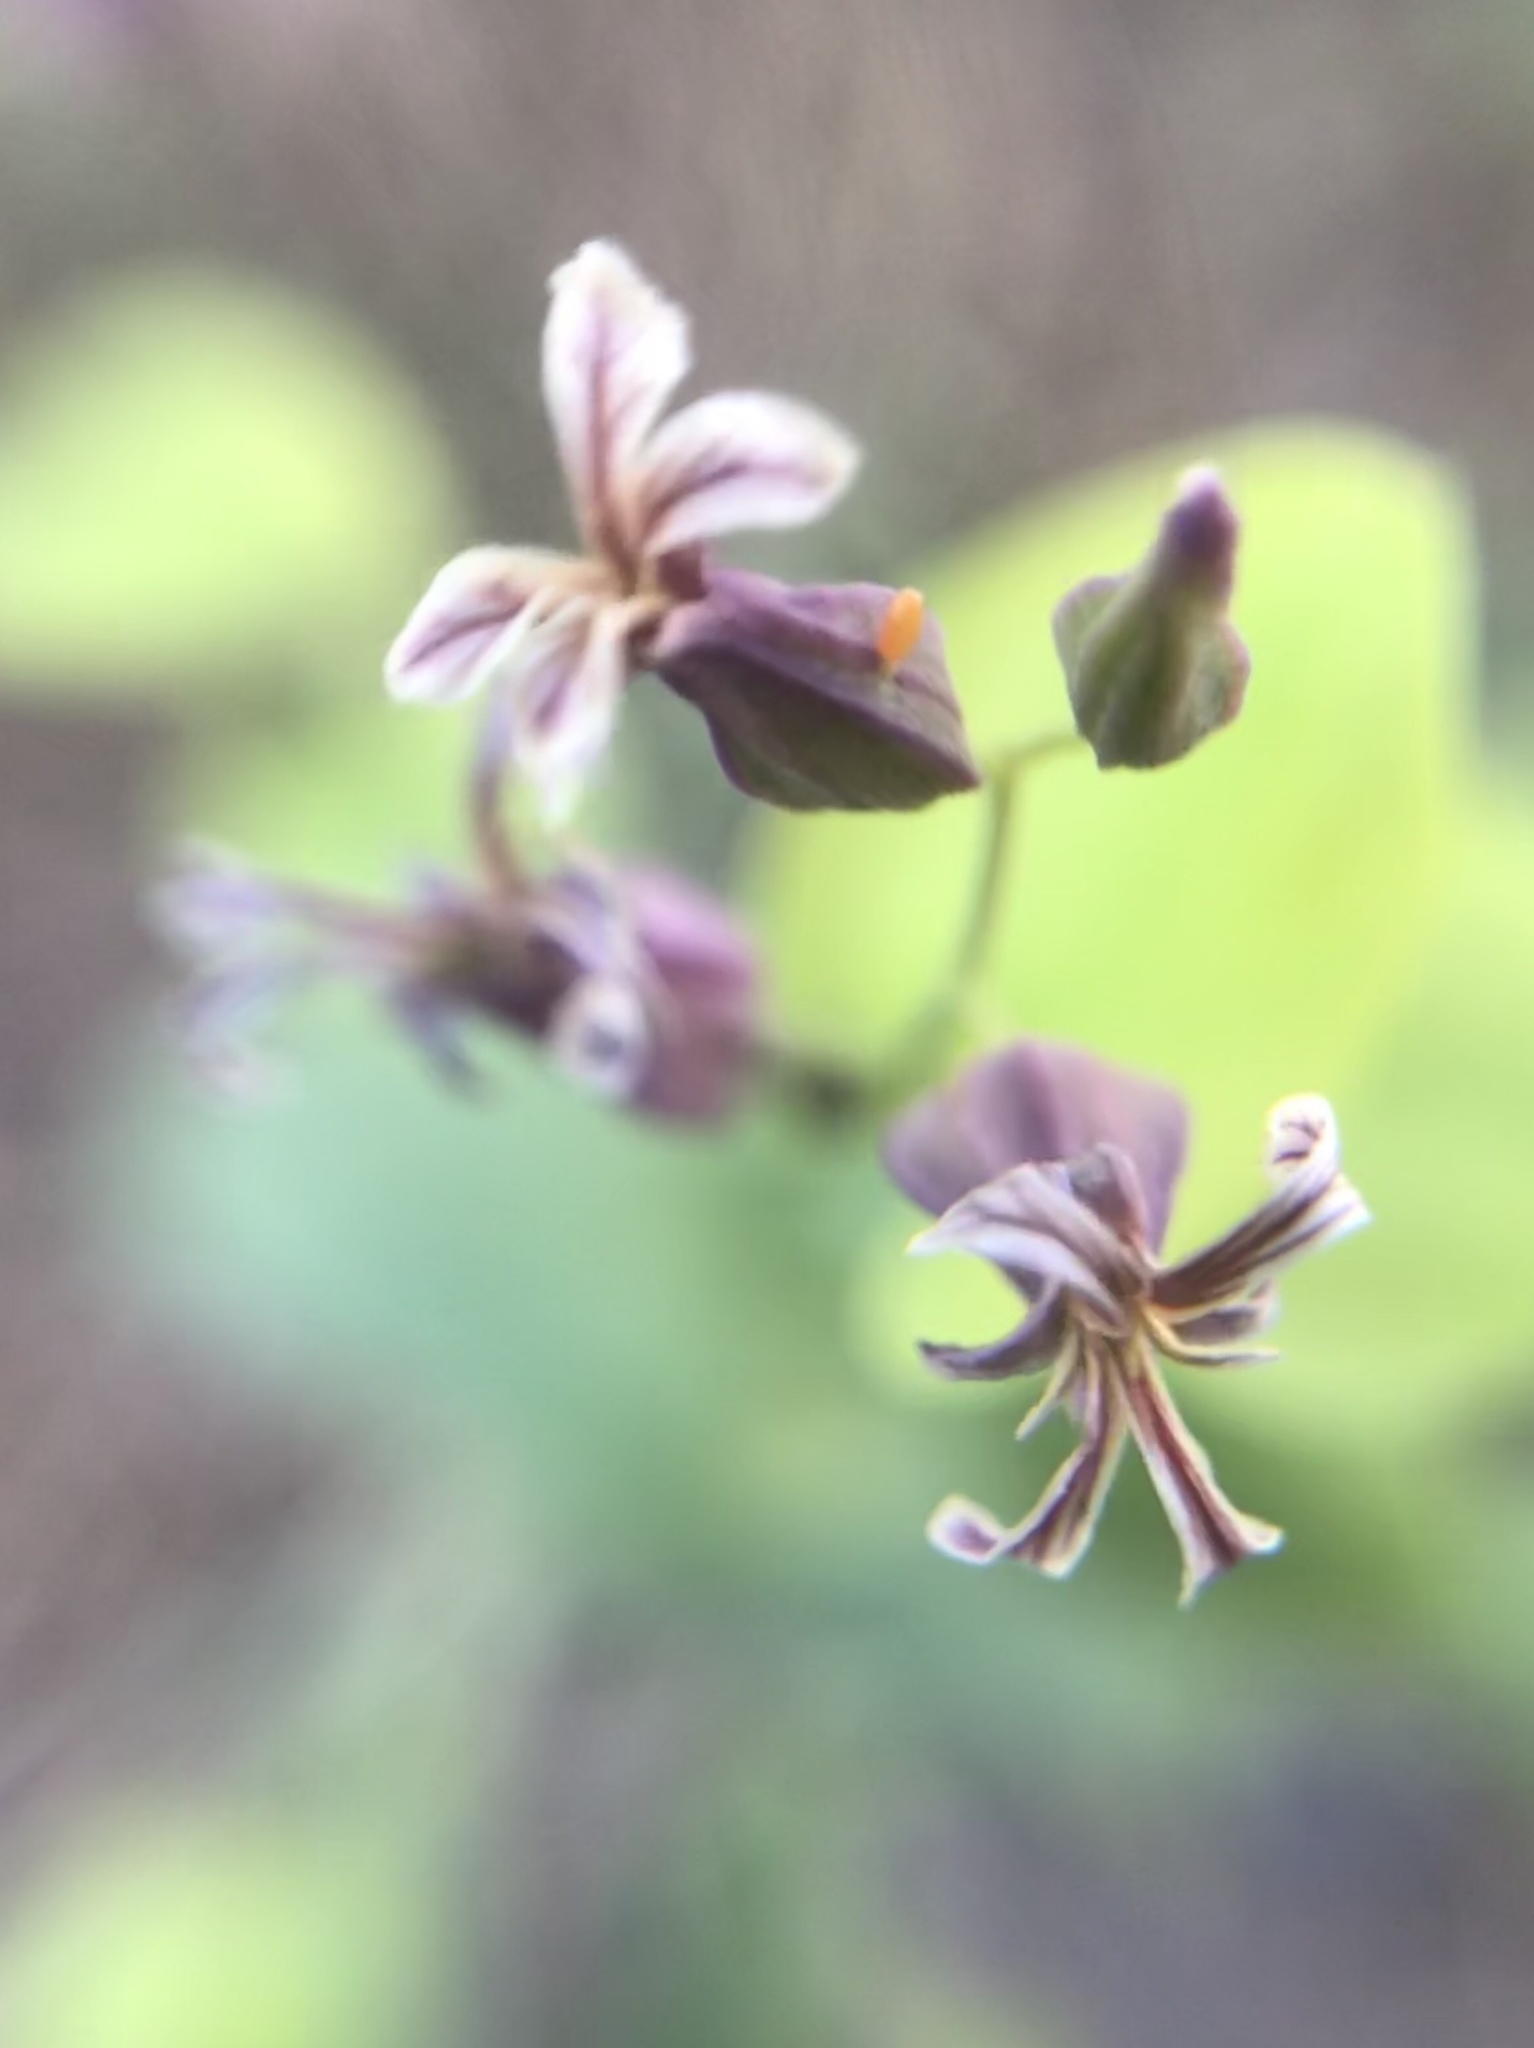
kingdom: Plantae
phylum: Tracheophyta
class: Magnoliopsida
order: Brassicales
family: Brassicaceae
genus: Streptanthus
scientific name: Streptanthus tortuosus
